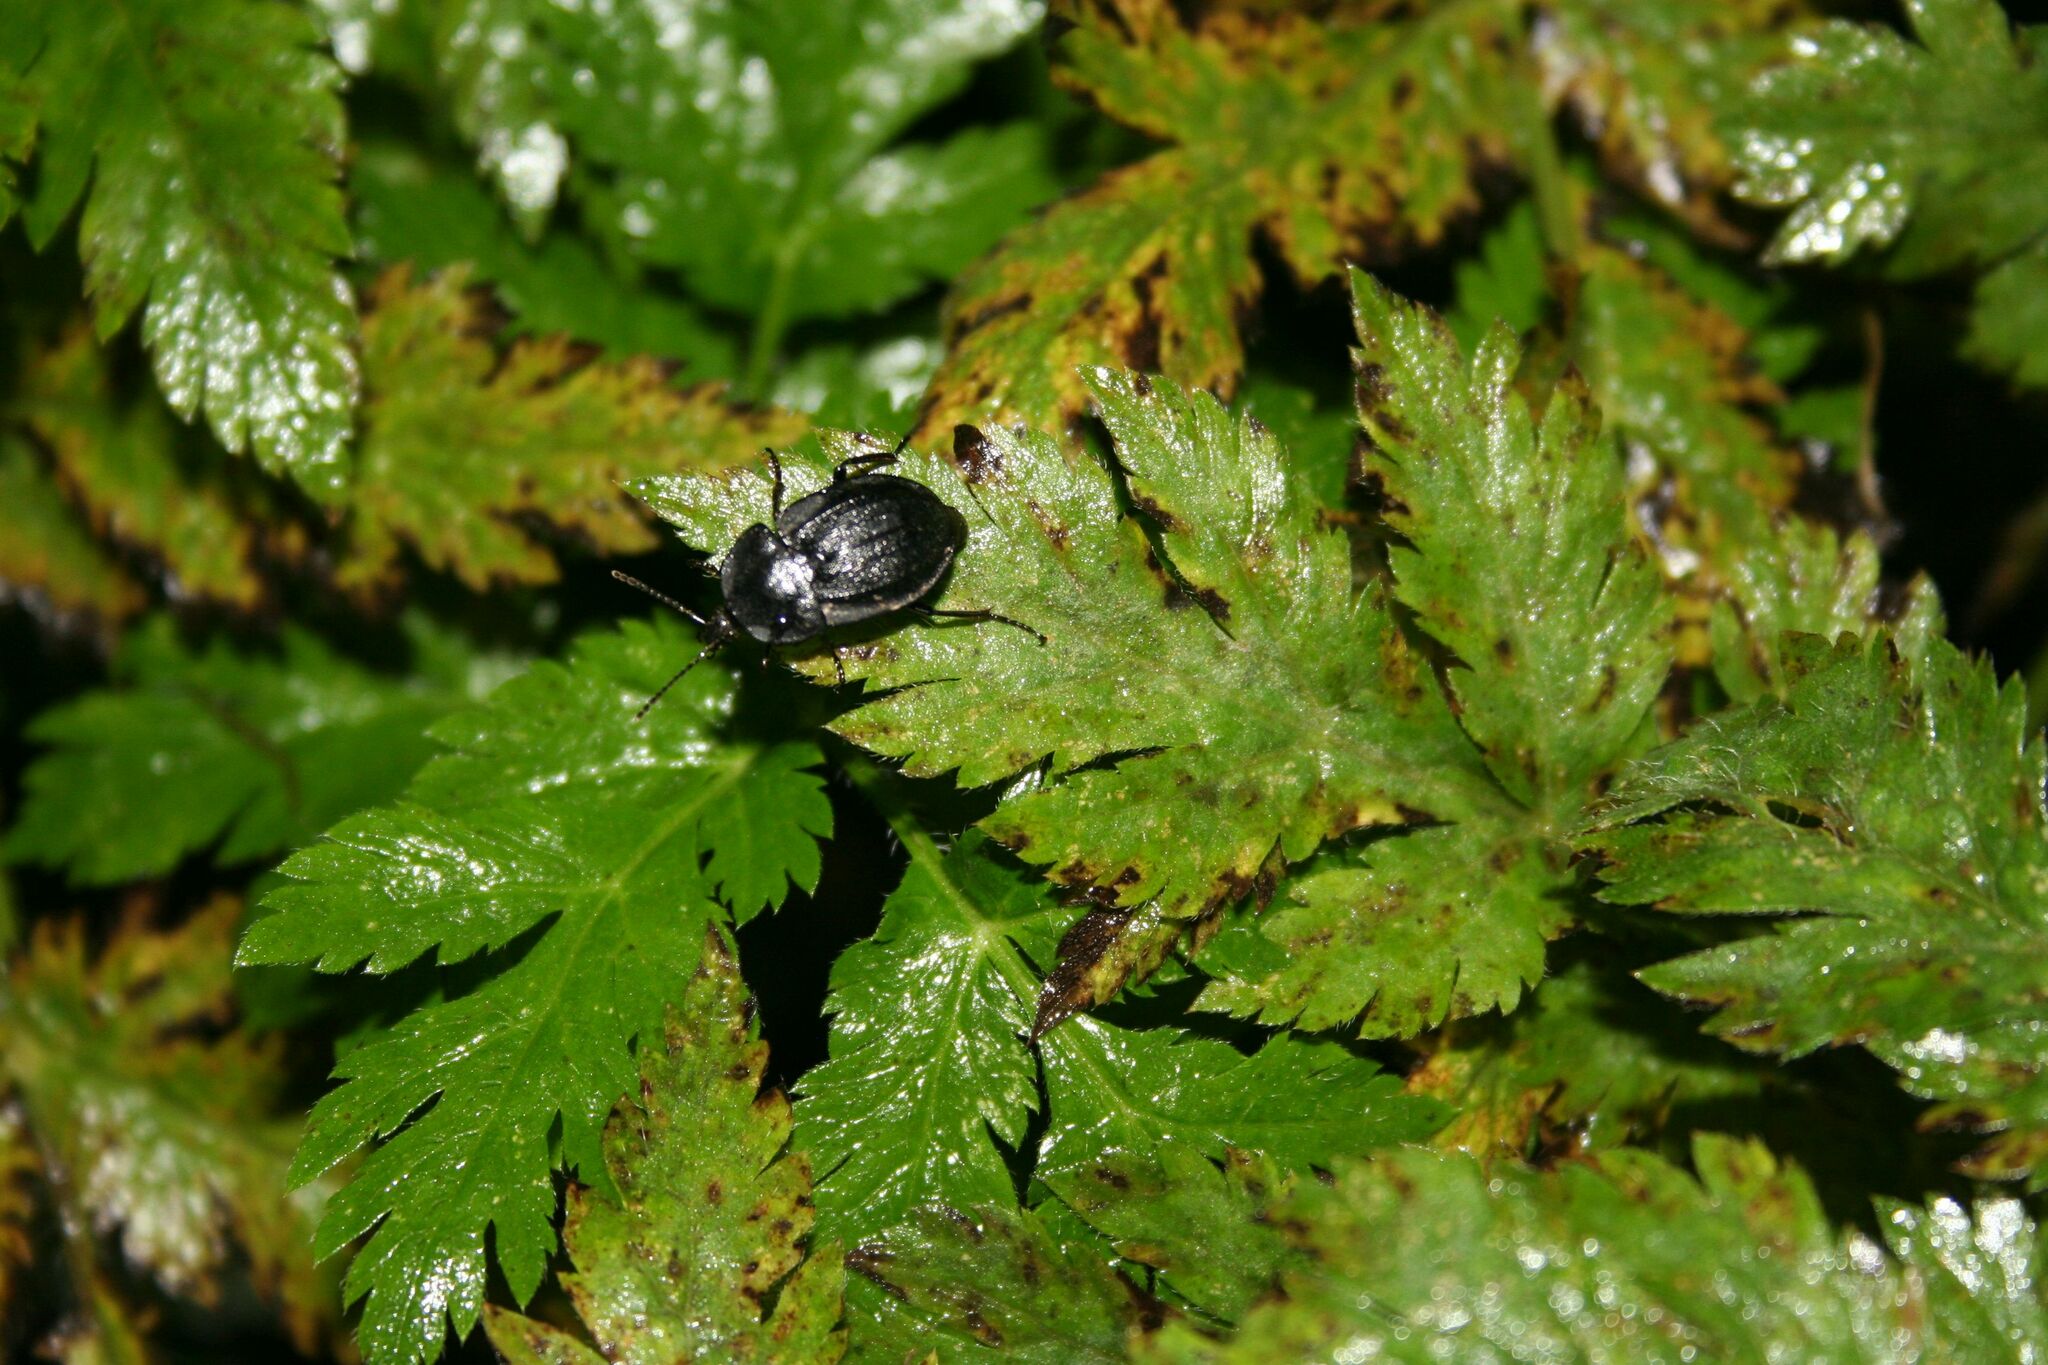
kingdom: Animalia
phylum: Arthropoda
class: Insecta
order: Coleoptera
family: Staphylinidae
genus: Silpha
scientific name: Silpha atrata
